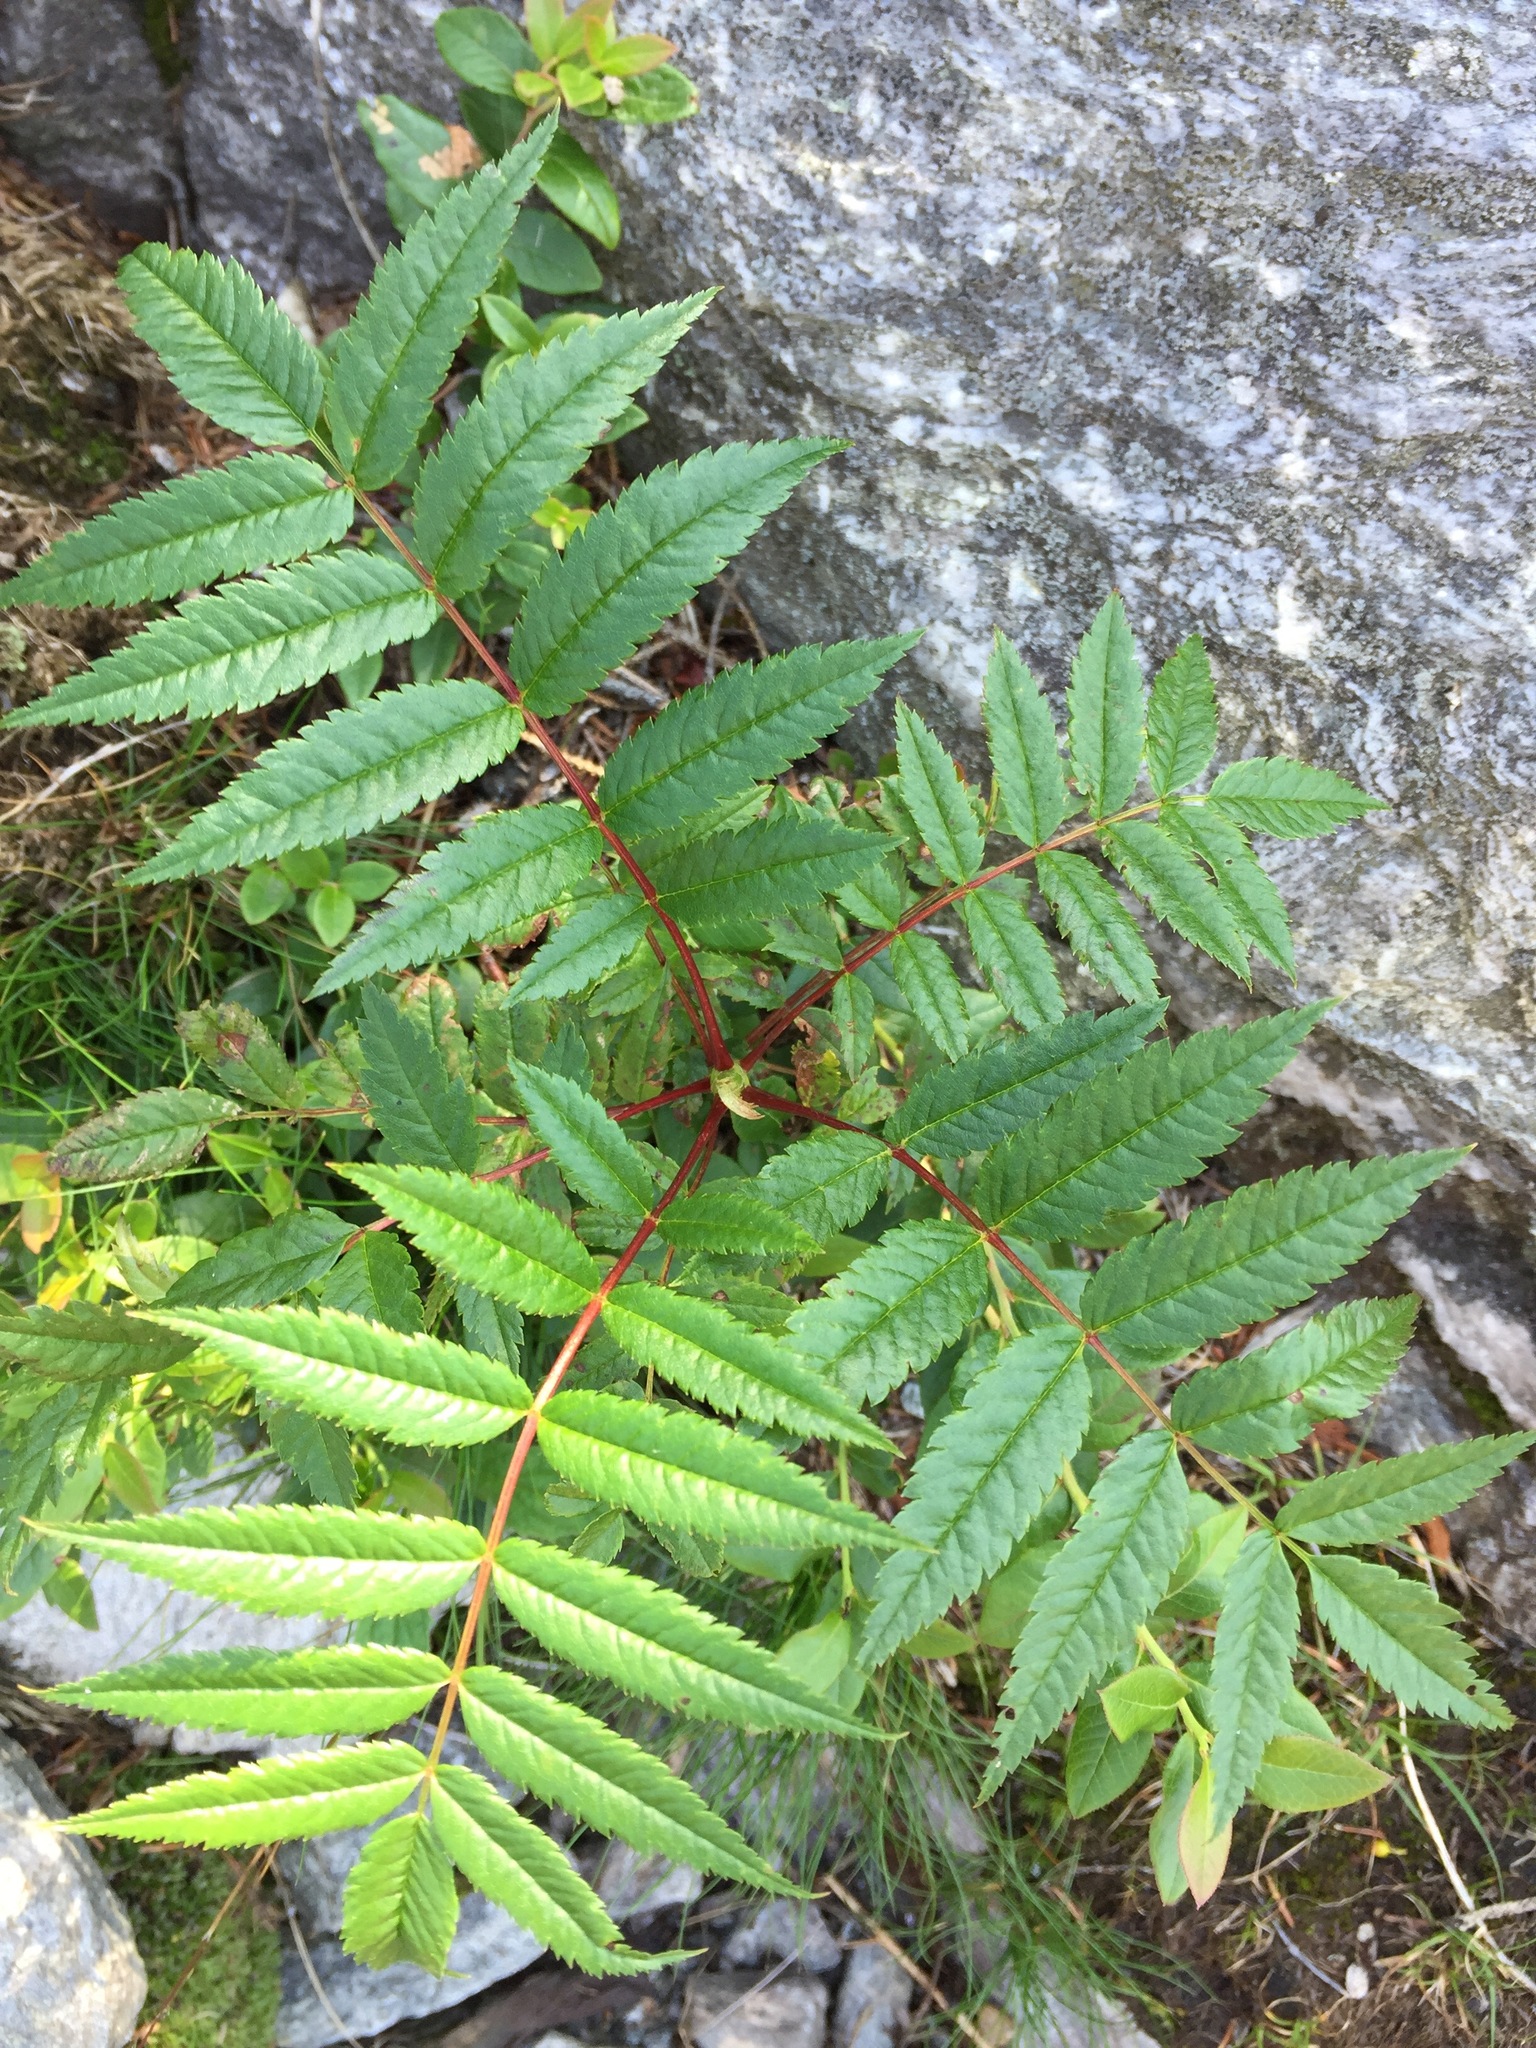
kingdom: Plantae
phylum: Tracheophyta
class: Magnoliopsida
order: Rosales
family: Rosaceae
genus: Sorbus
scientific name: Sorbus americana
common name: American mountain-ash
